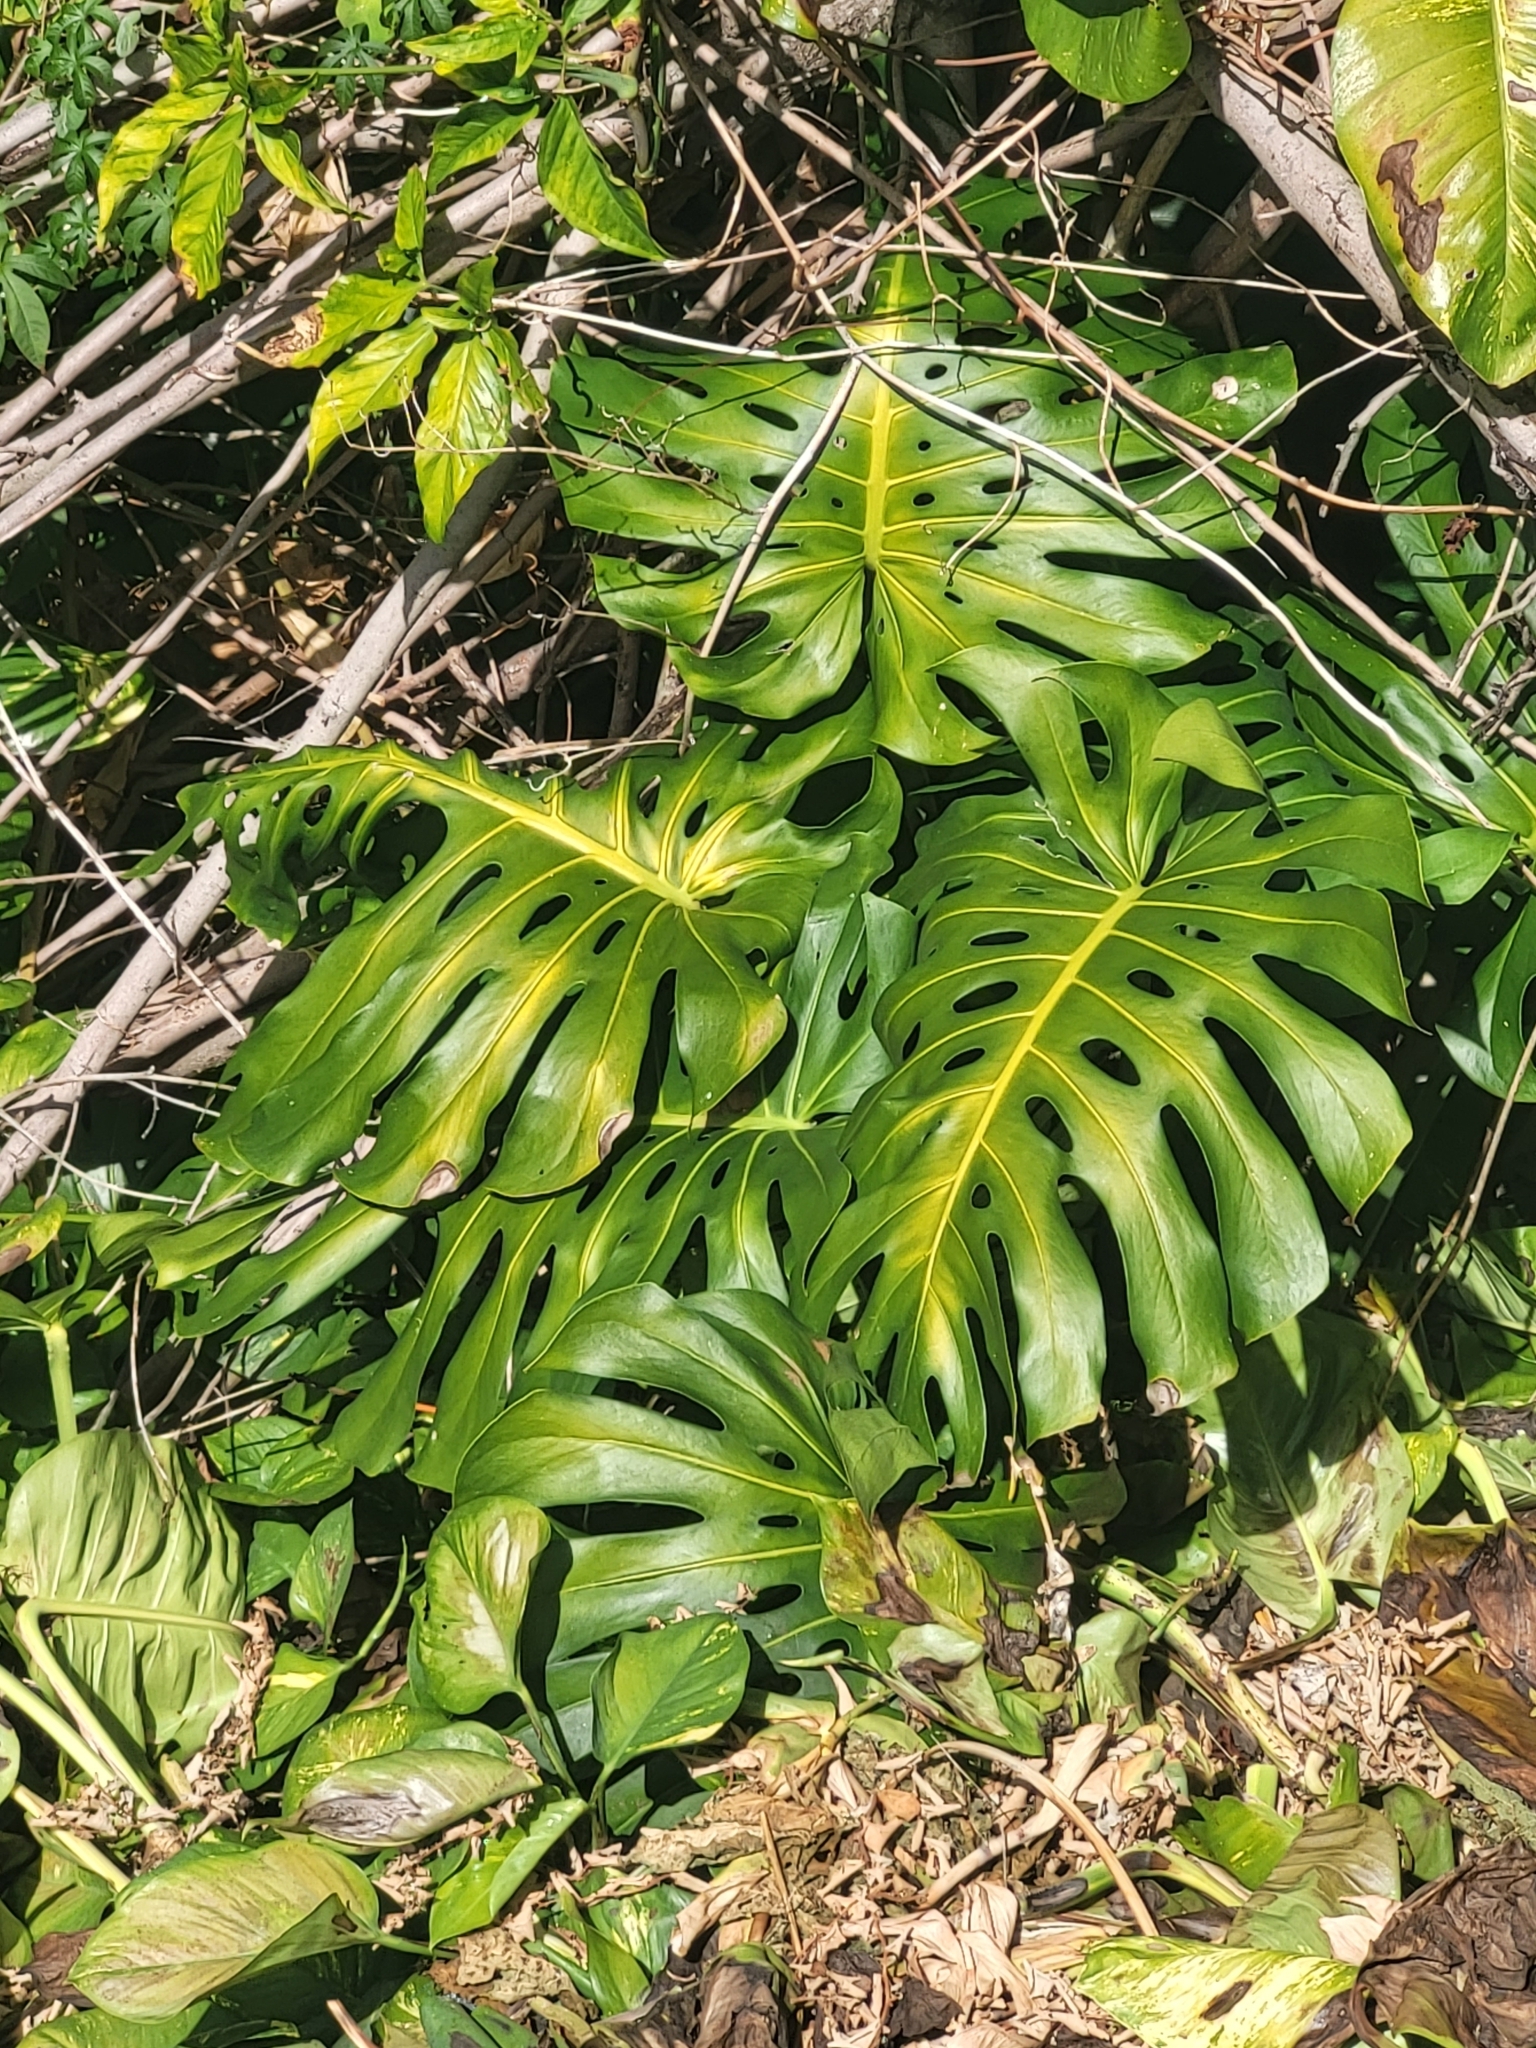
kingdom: Plantae
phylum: Tracheophyta
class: Liliopsida
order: Alismatales
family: Araceae
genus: Monstera
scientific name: Monstera deliciosa
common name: Cut-leaf-philodendron
